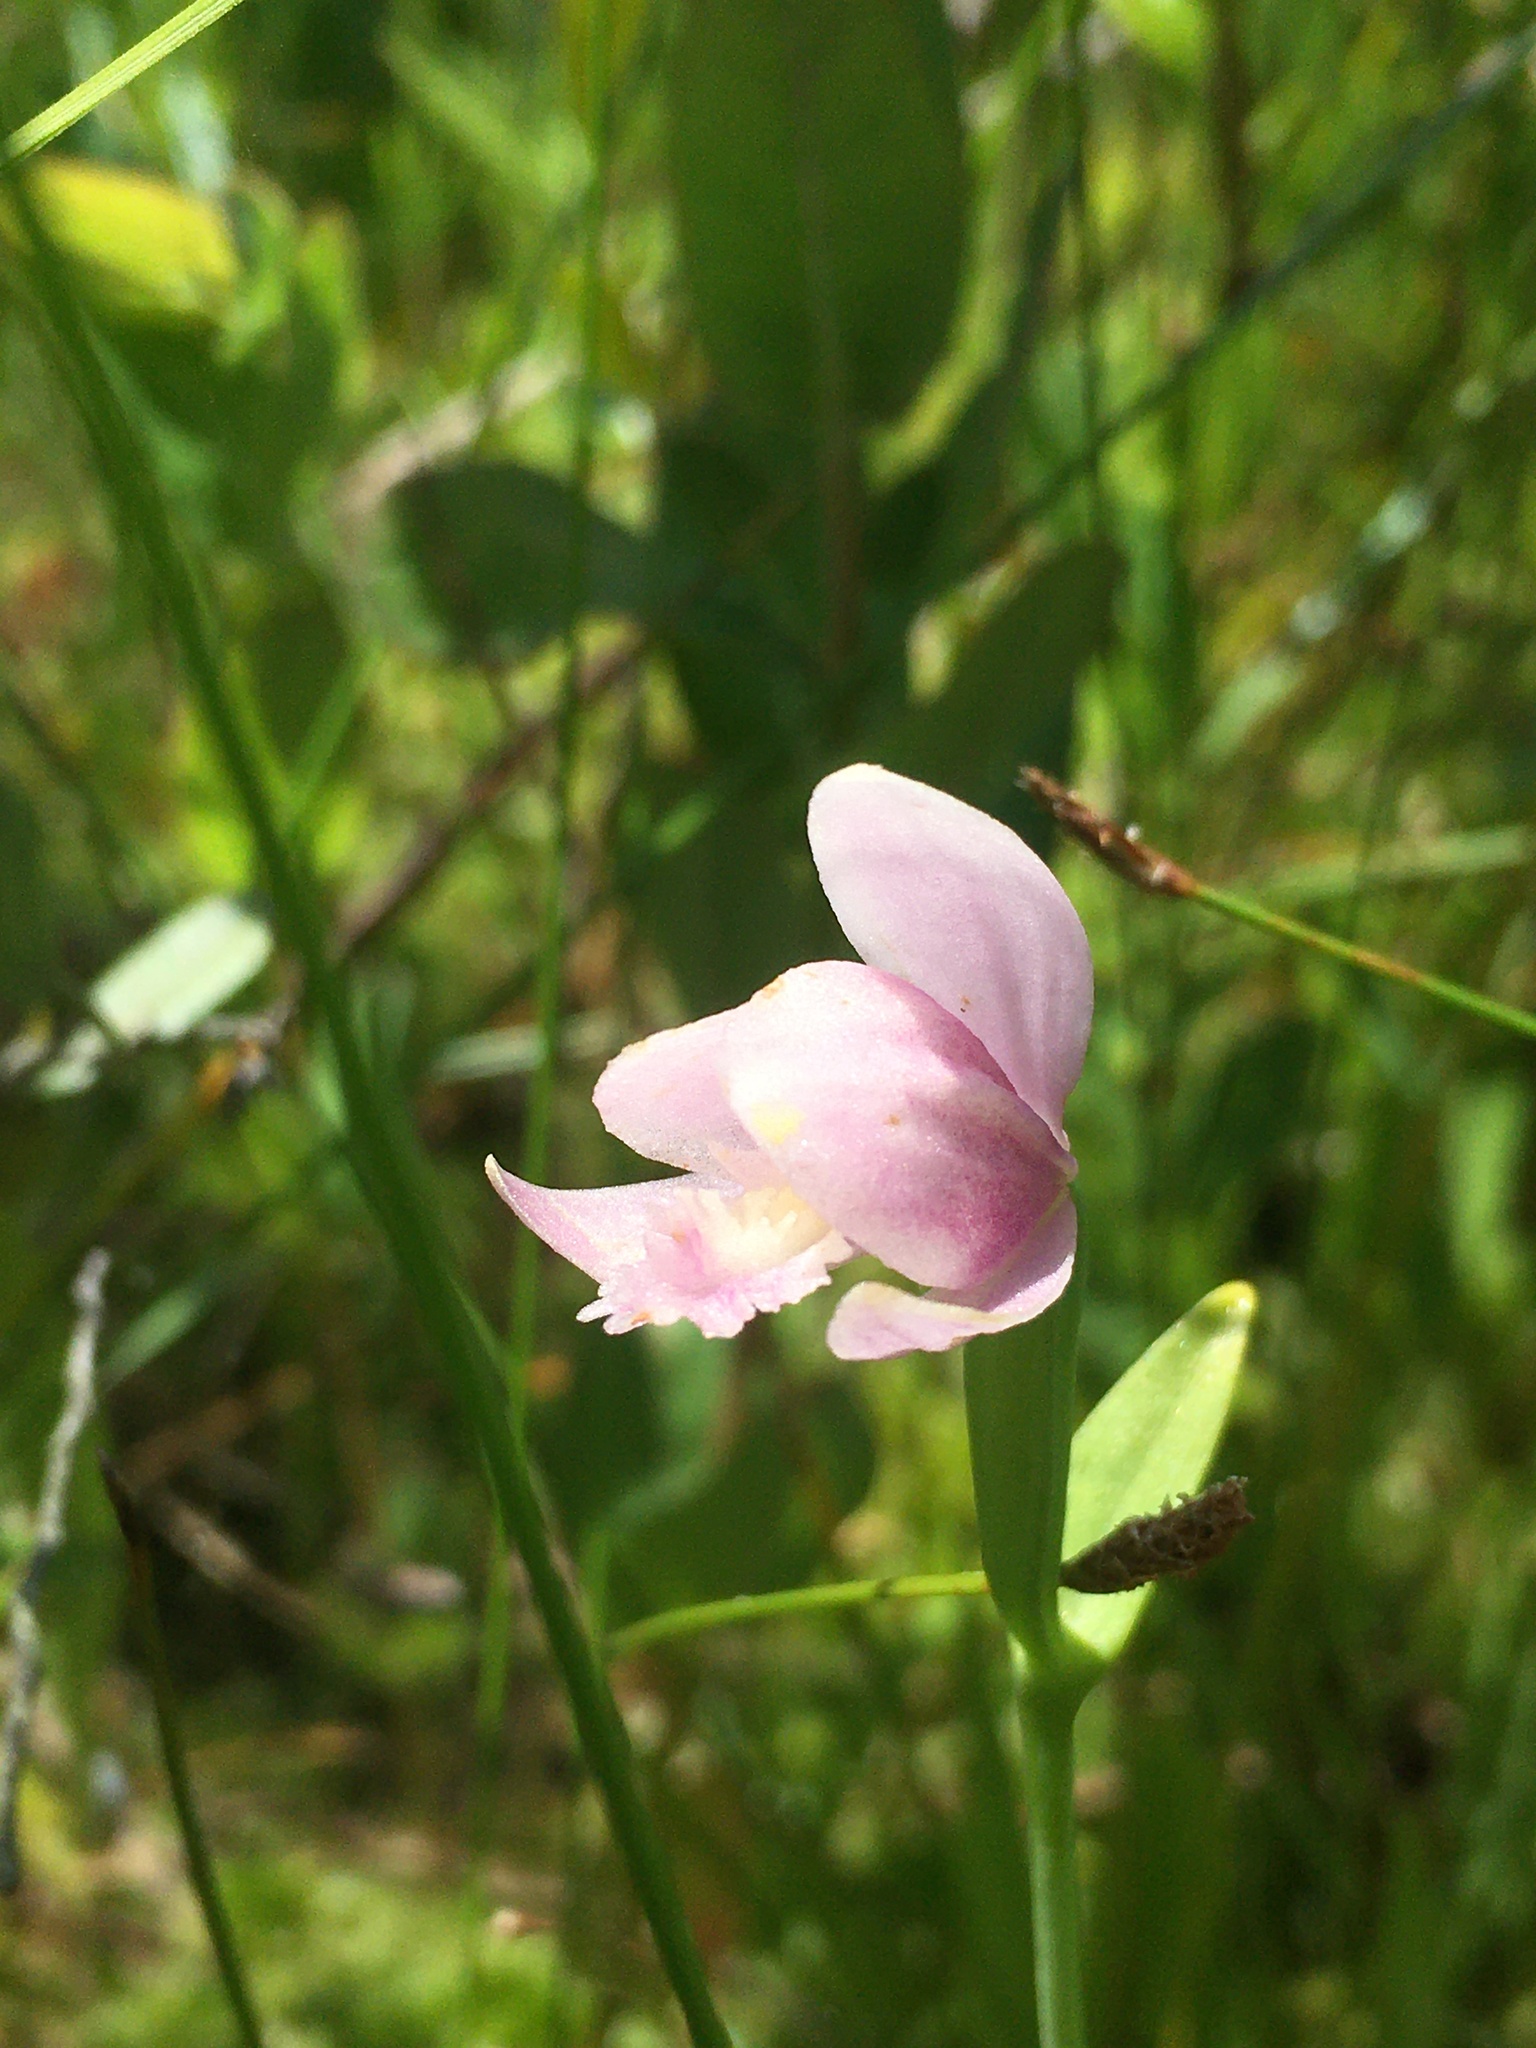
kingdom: Plantae
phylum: Tracheophyta
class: Liliopsida
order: Asparagales
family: Orchidaceae
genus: Pogonia
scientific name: Pogonia ophioglossoides
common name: Rose pogonia
